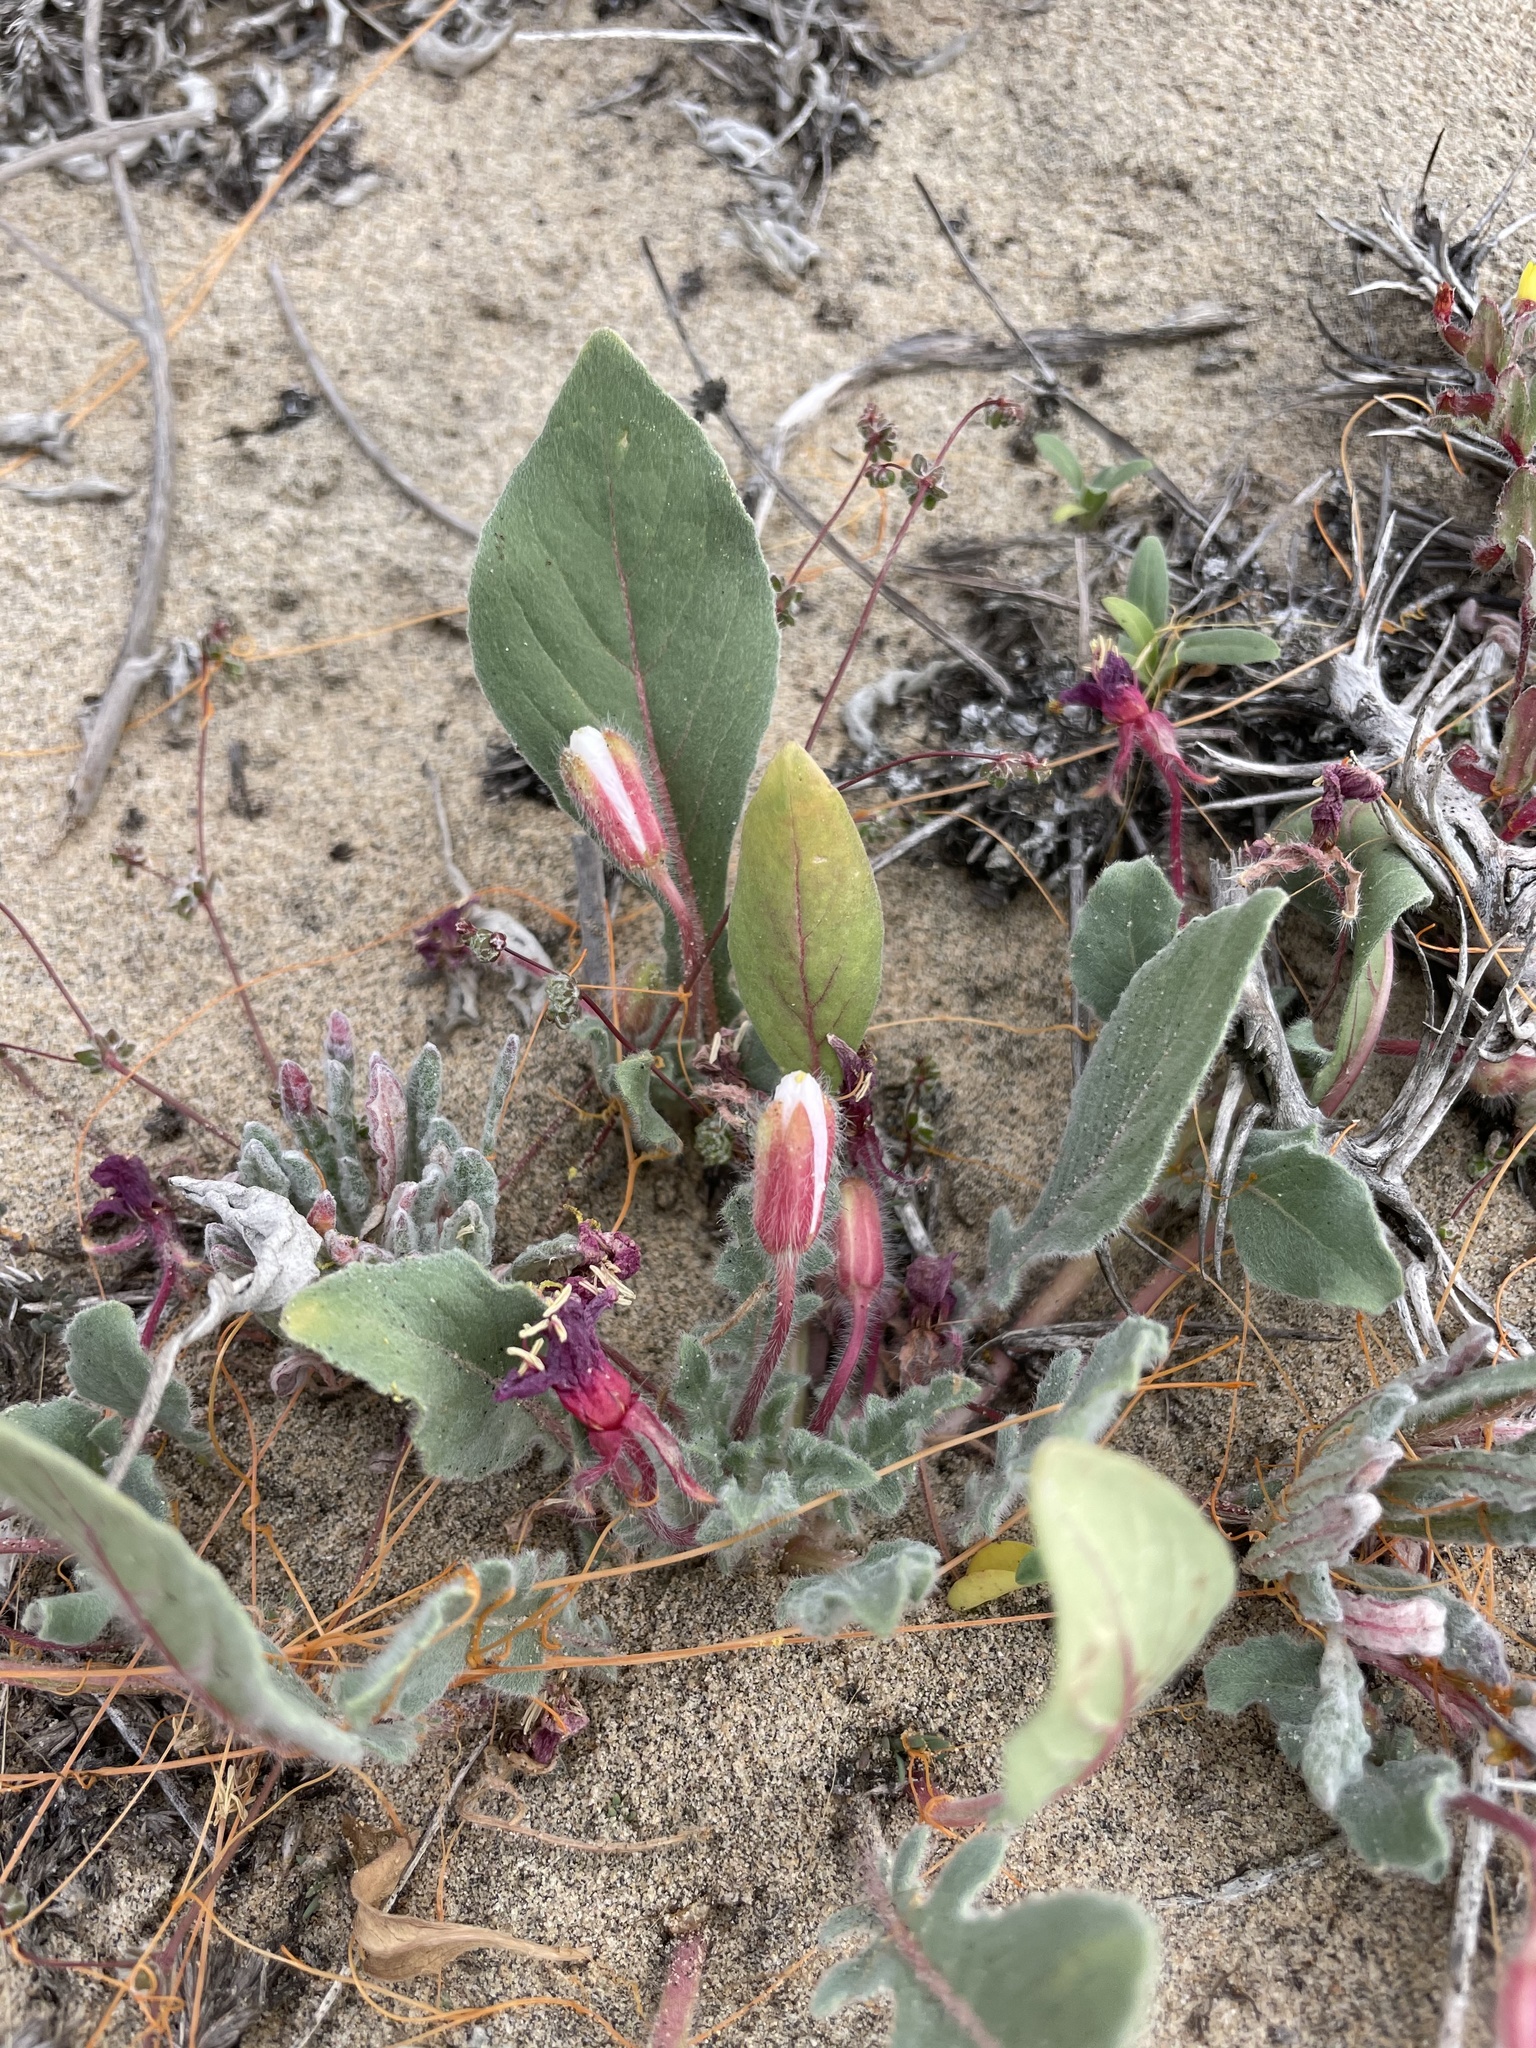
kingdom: Plantae
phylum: Tracheophyta
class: Magnoliopsida
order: Myrtales
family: Onagraceae
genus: Oenothera
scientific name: Oenothera wigginsii
